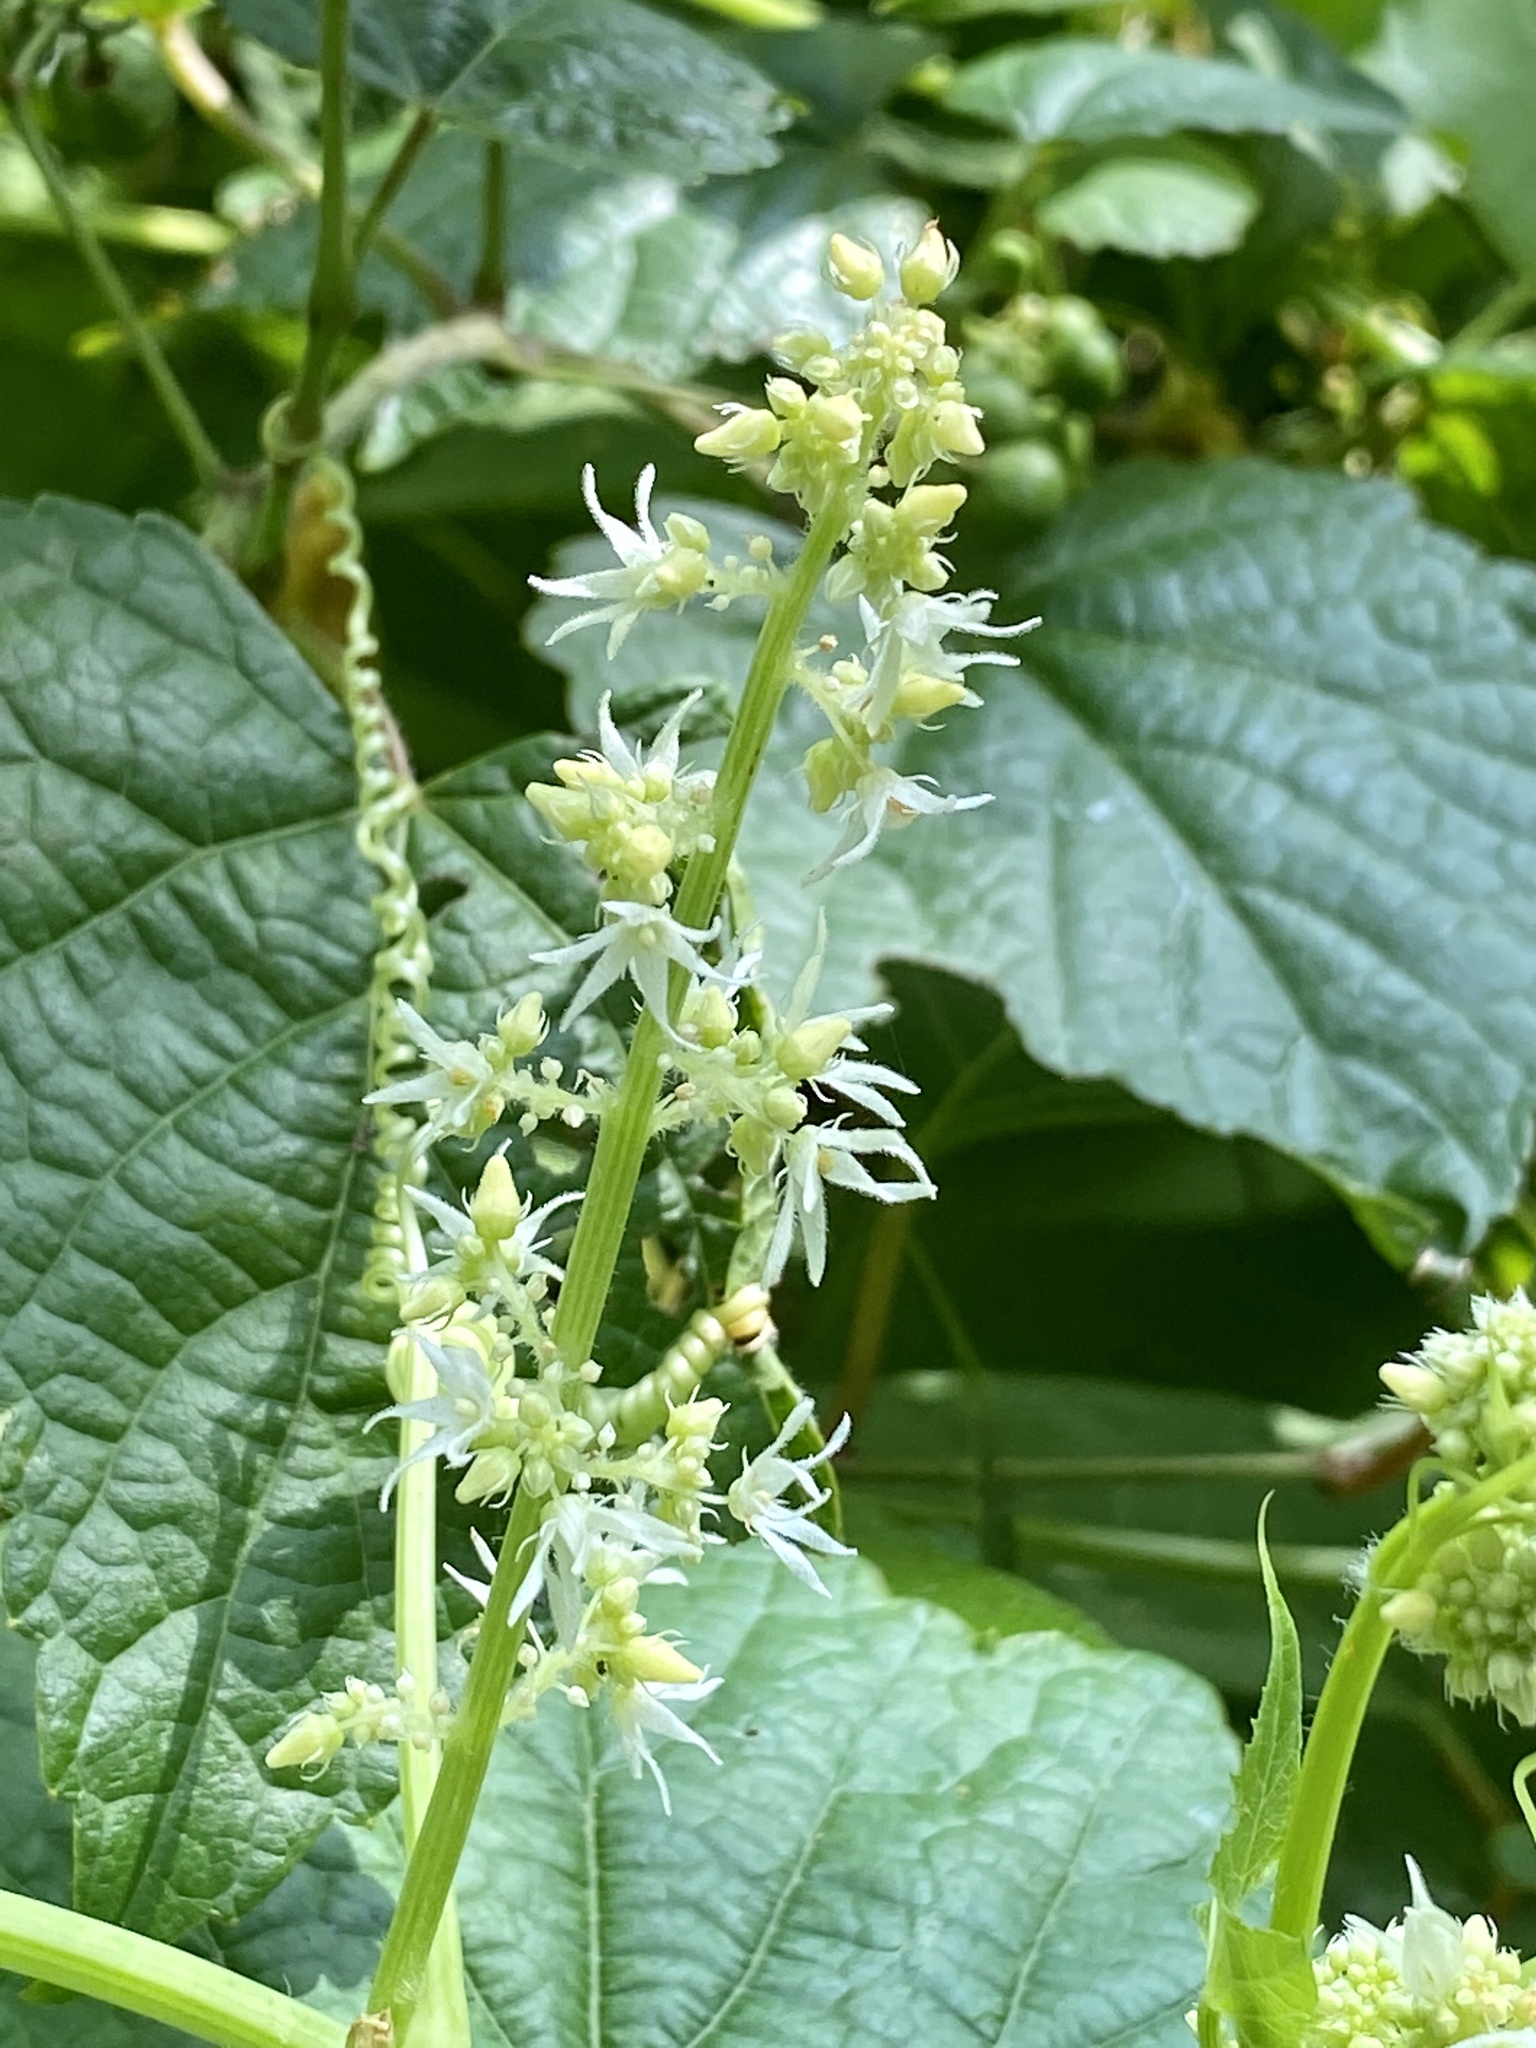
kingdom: Plantae
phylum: Tracheophyta
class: Magnoliopsida
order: Cucurbitales
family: Cucurbitaceae
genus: Echinocystis
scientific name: Echinocystis lobata
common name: Wild cucumber
